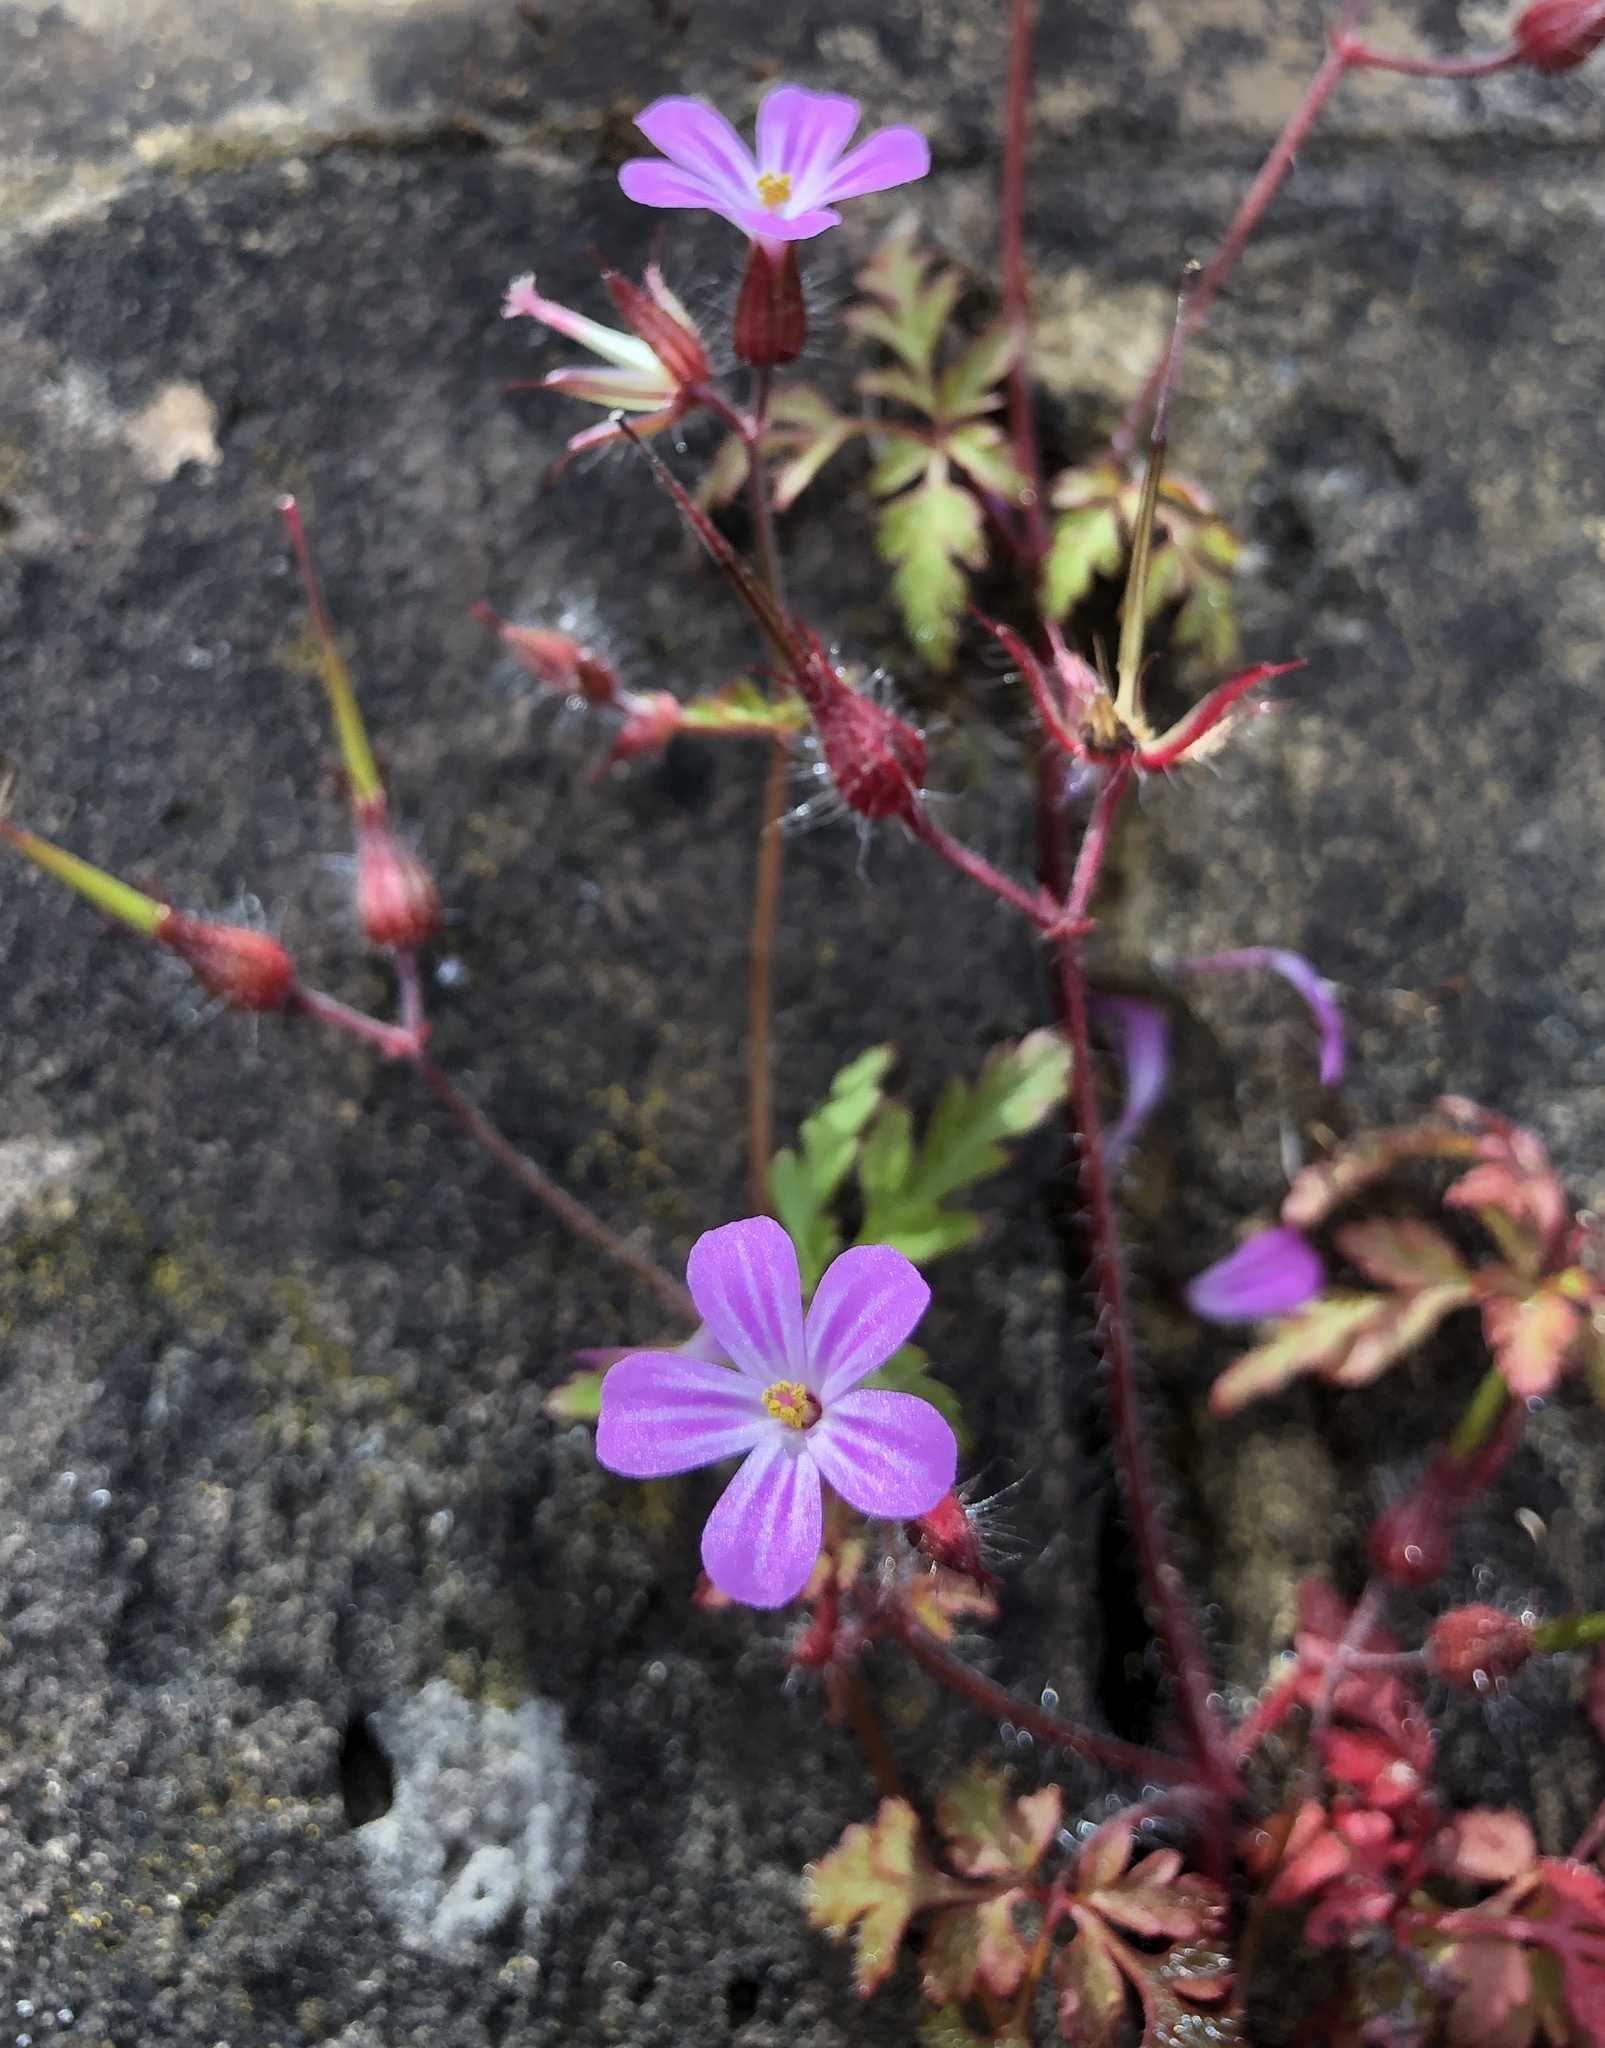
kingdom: Plantae
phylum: Tracheophyta
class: Magnoliopsida
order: Geraniales
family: Geraniaceae
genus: Geranium
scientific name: Geranium robertianum
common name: Herb-robert
